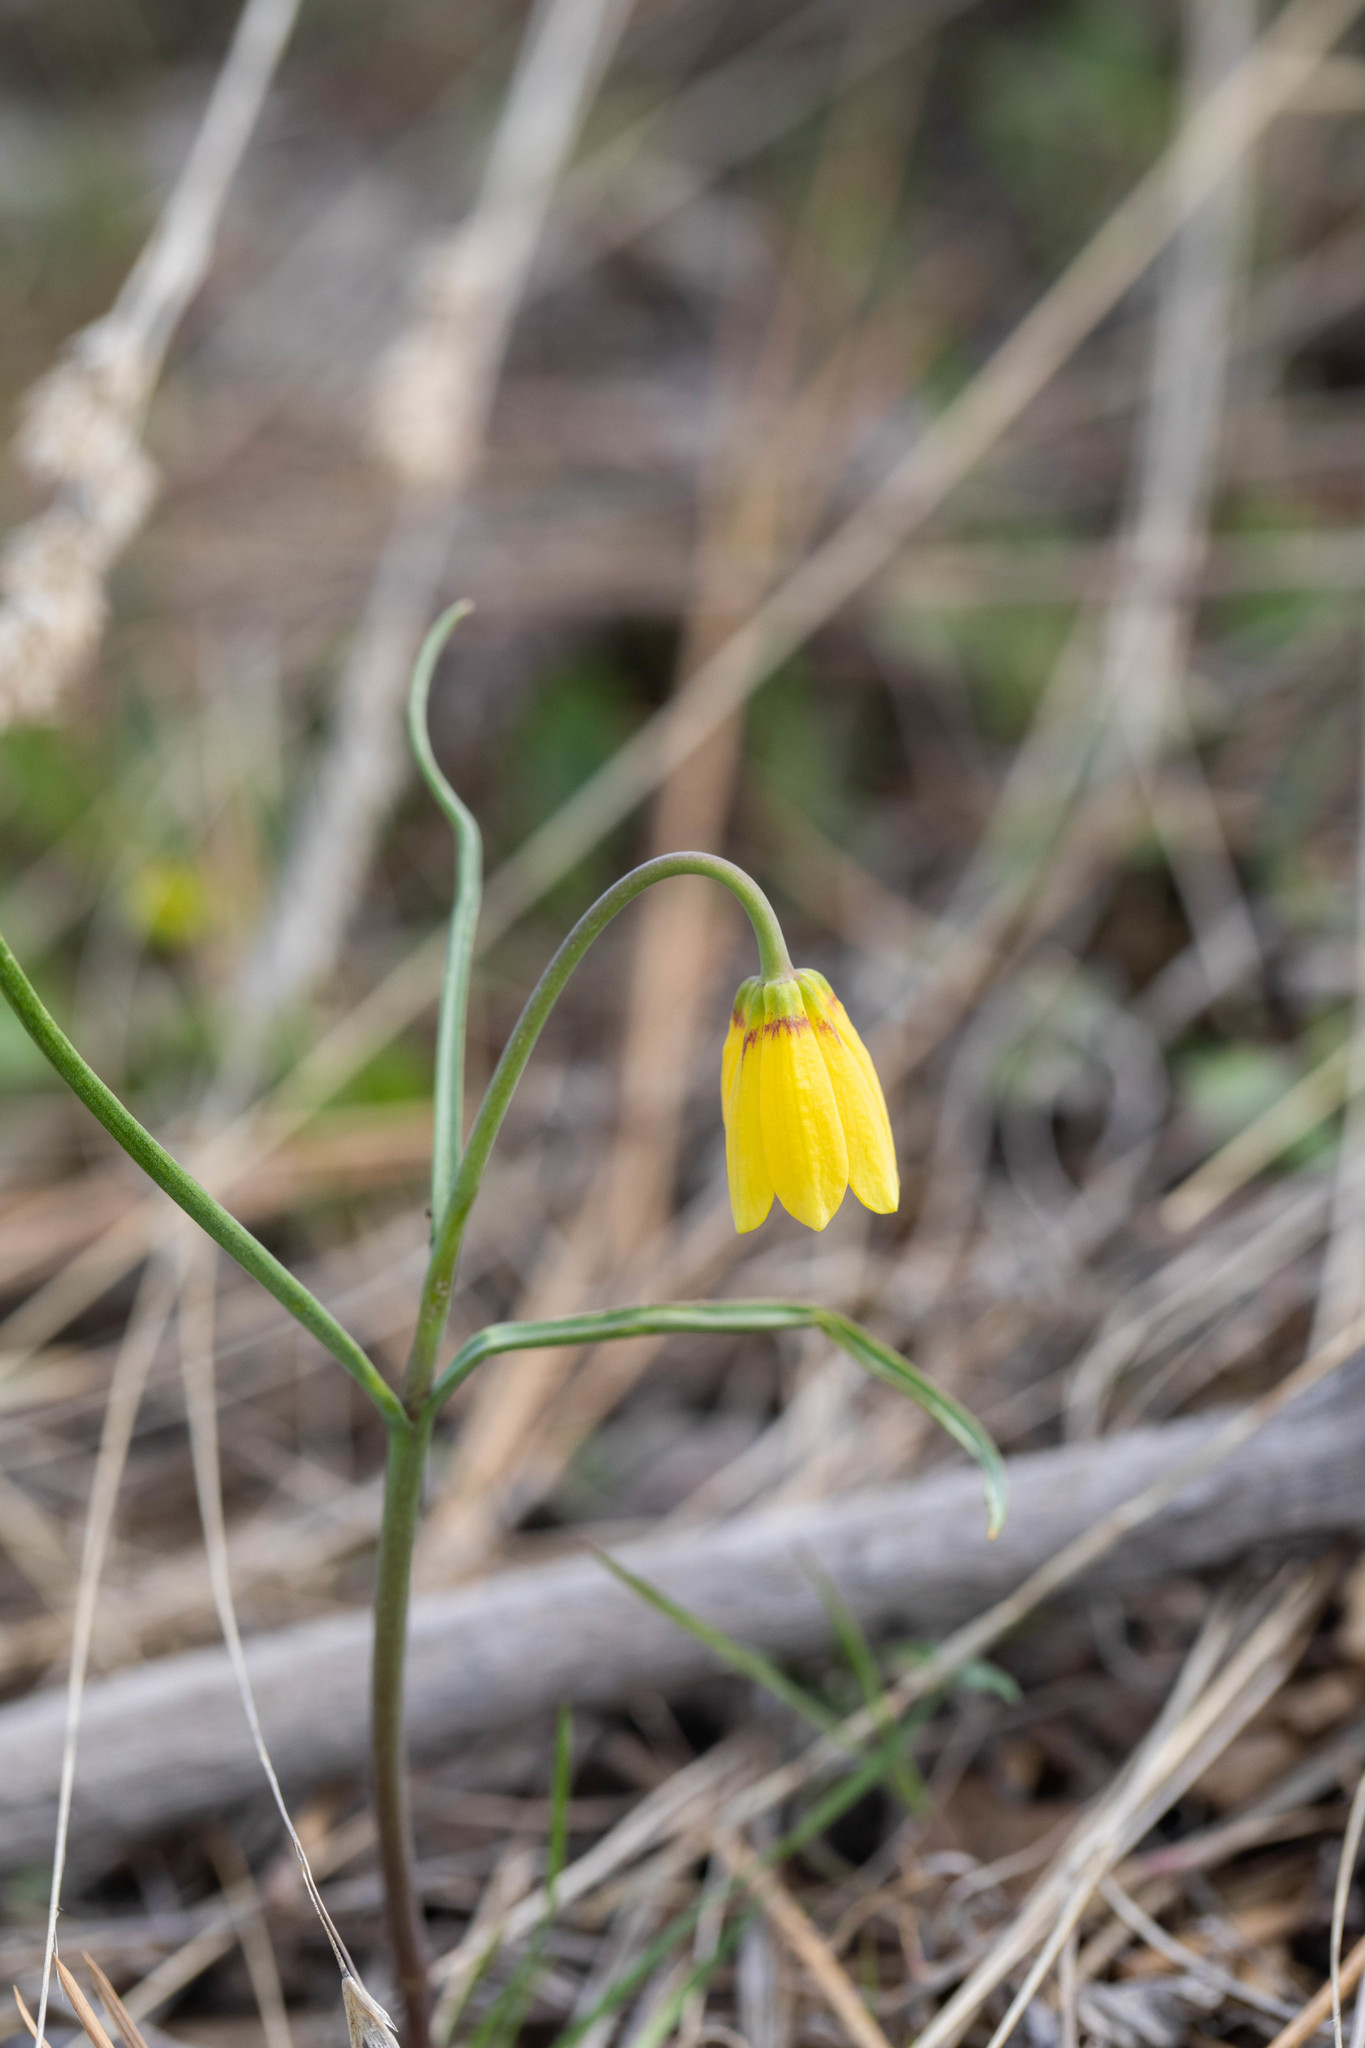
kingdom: Plantae
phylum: Tracheophyta
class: Liliopsida
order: Liliales
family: Liliaceae
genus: Fritillaria
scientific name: Fritillaria pudica
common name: Yellow fritillary
